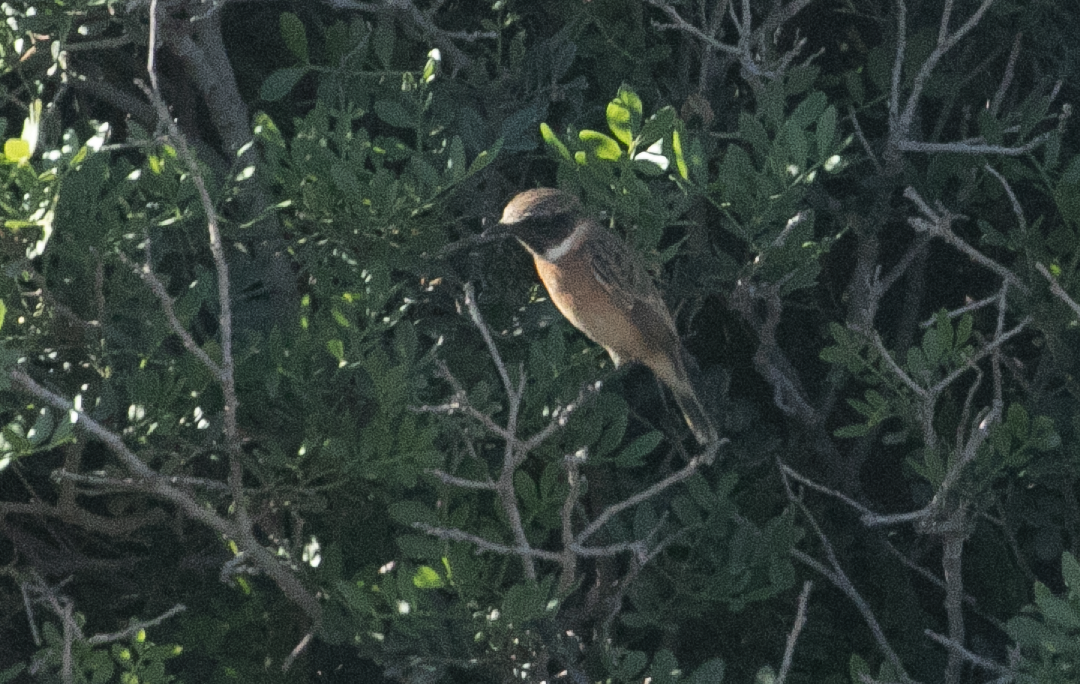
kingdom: Animalia
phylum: Chordata
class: Aves
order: Passeriformes
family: Muscicapidae
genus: Saxicola
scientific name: Saxicola rubicola
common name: European stonechat
